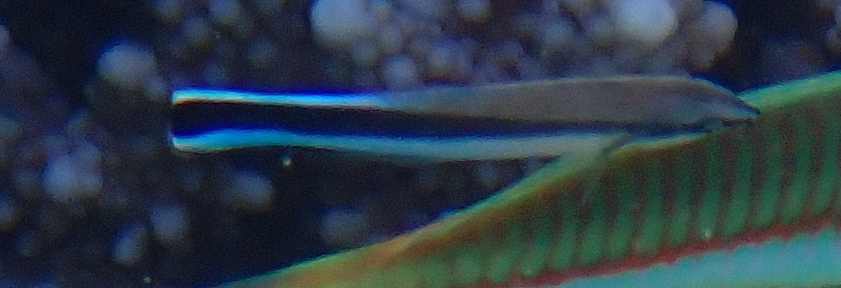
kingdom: Animalia
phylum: Chordata
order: Perciformes
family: Labridae
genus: Labroides
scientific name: Labroides dimidiatus
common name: Blue diesel wrasse
